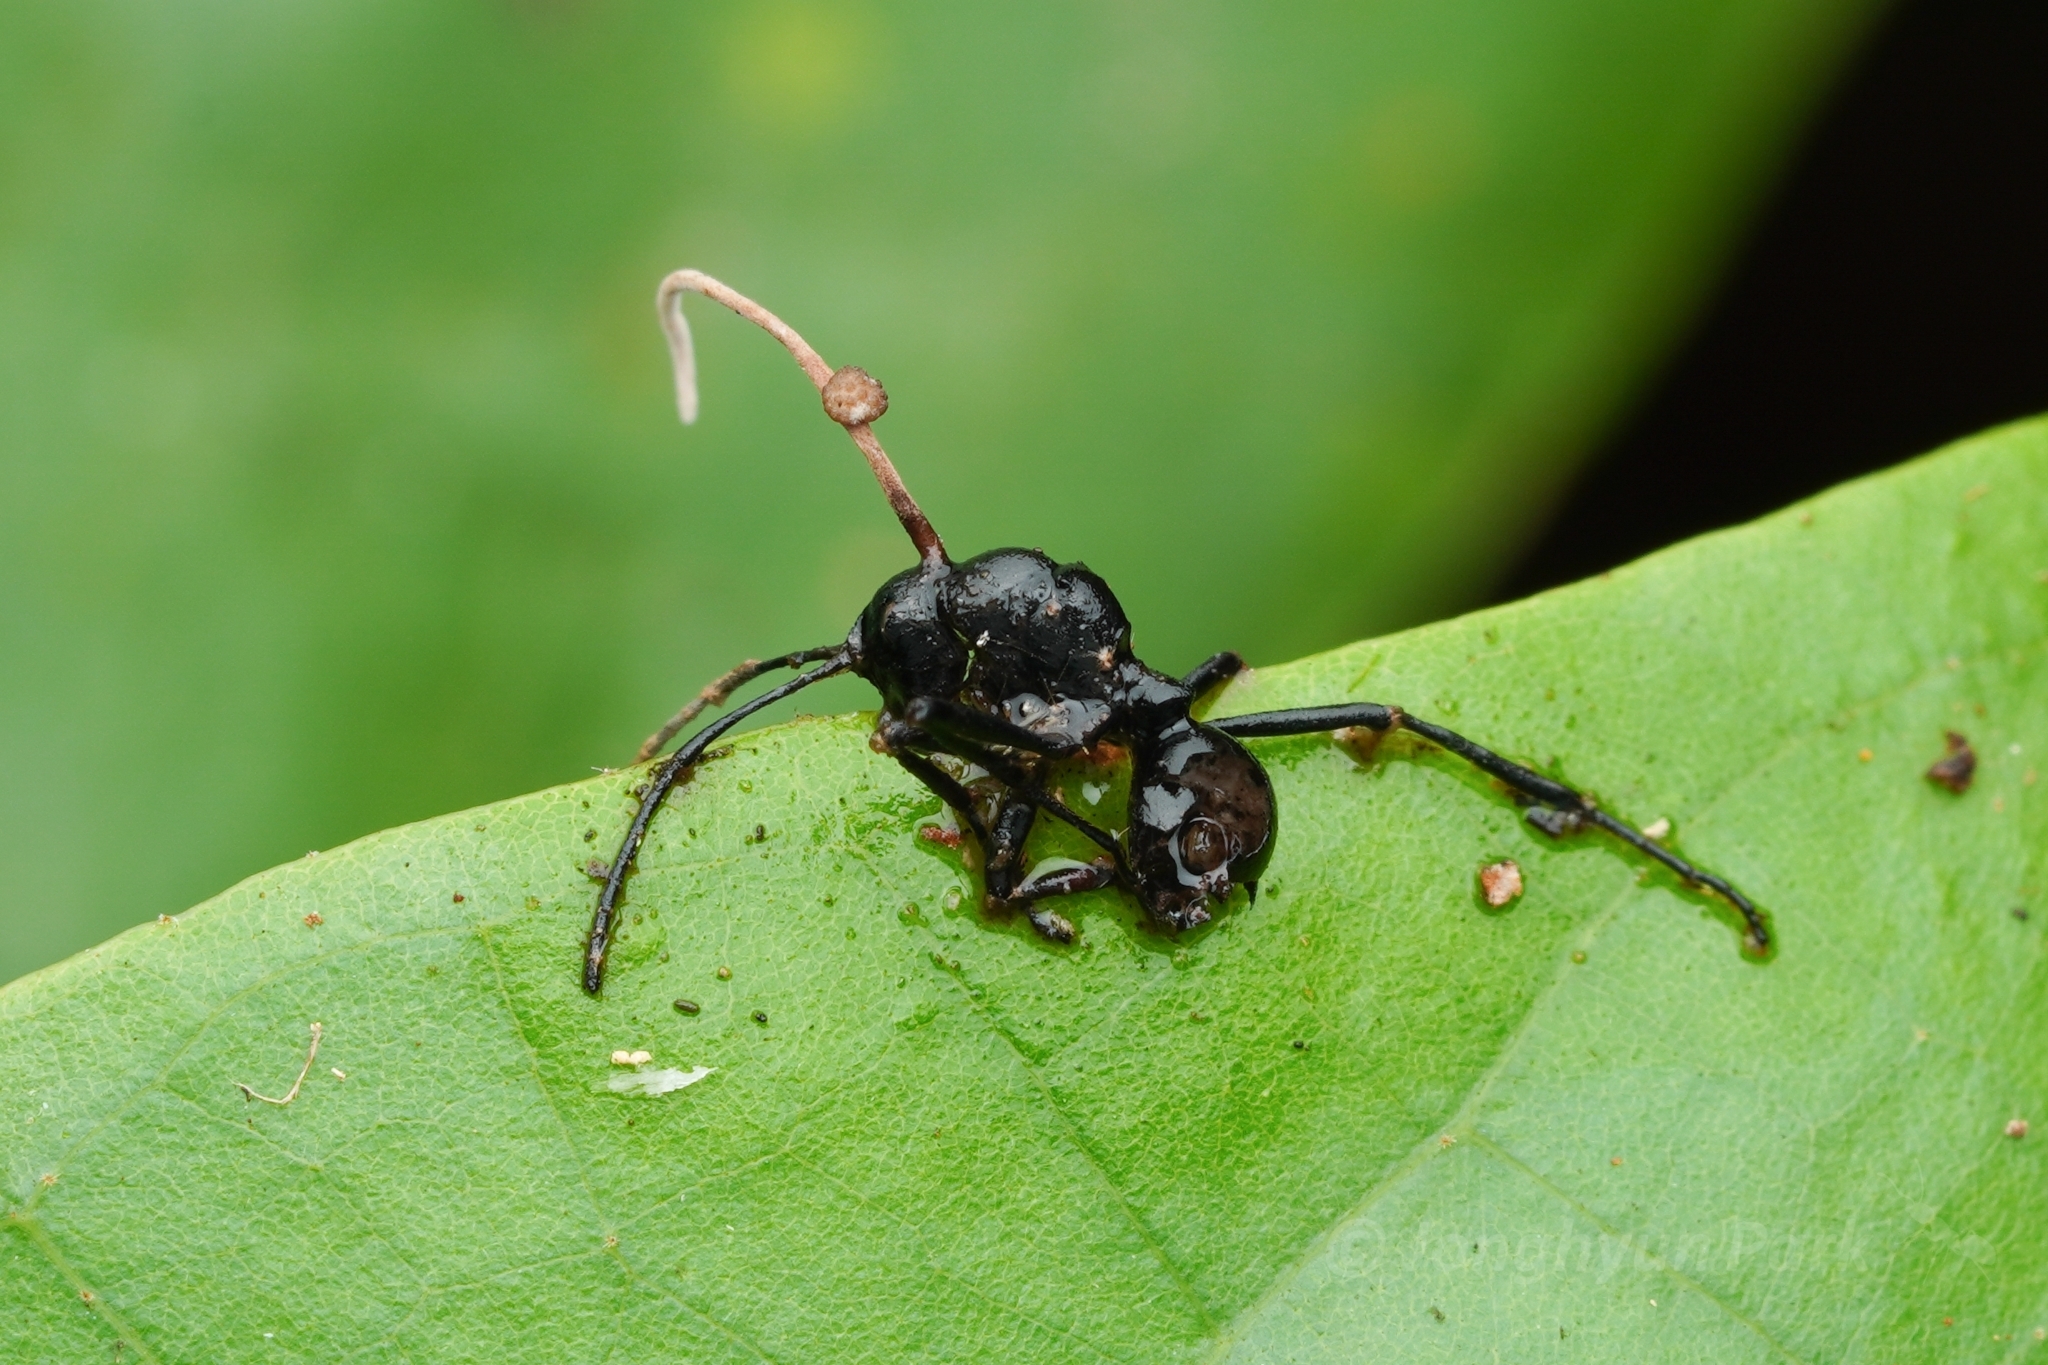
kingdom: Animalia
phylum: Arthropoda
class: Insecta
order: Hymenoptera
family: Formicidae
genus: Polyrhachis
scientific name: Polyrhachis boltoni
